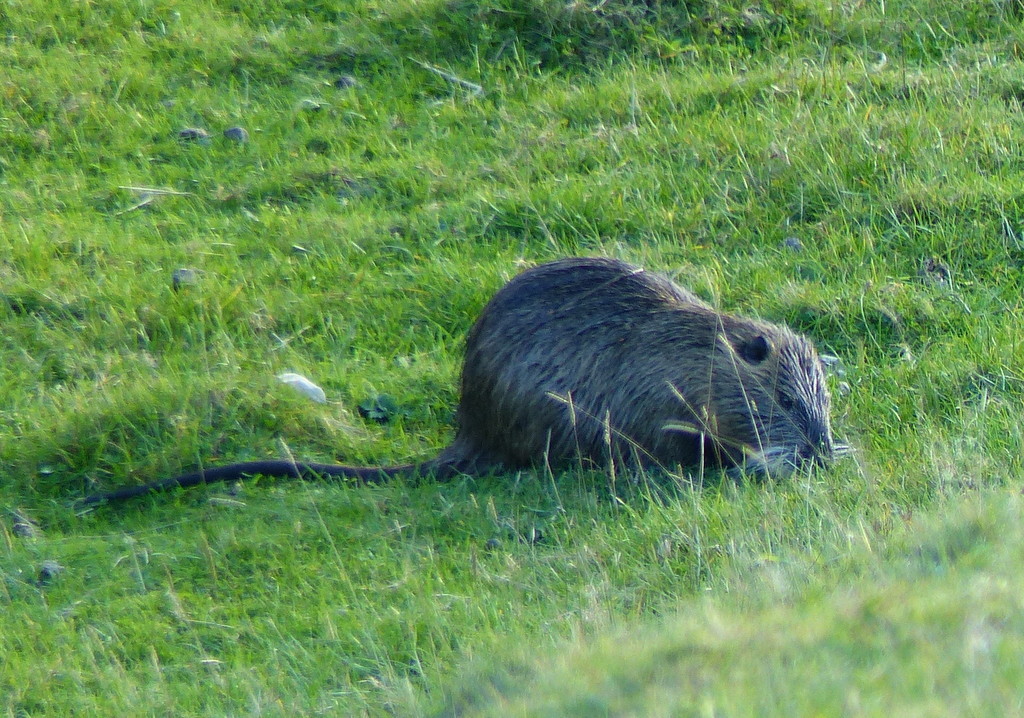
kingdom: Animalia
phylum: Chordata
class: Mammalia
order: Rodentia
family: Myocastoridae
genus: Myocastor
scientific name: Myocastor coypus
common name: Coypu
